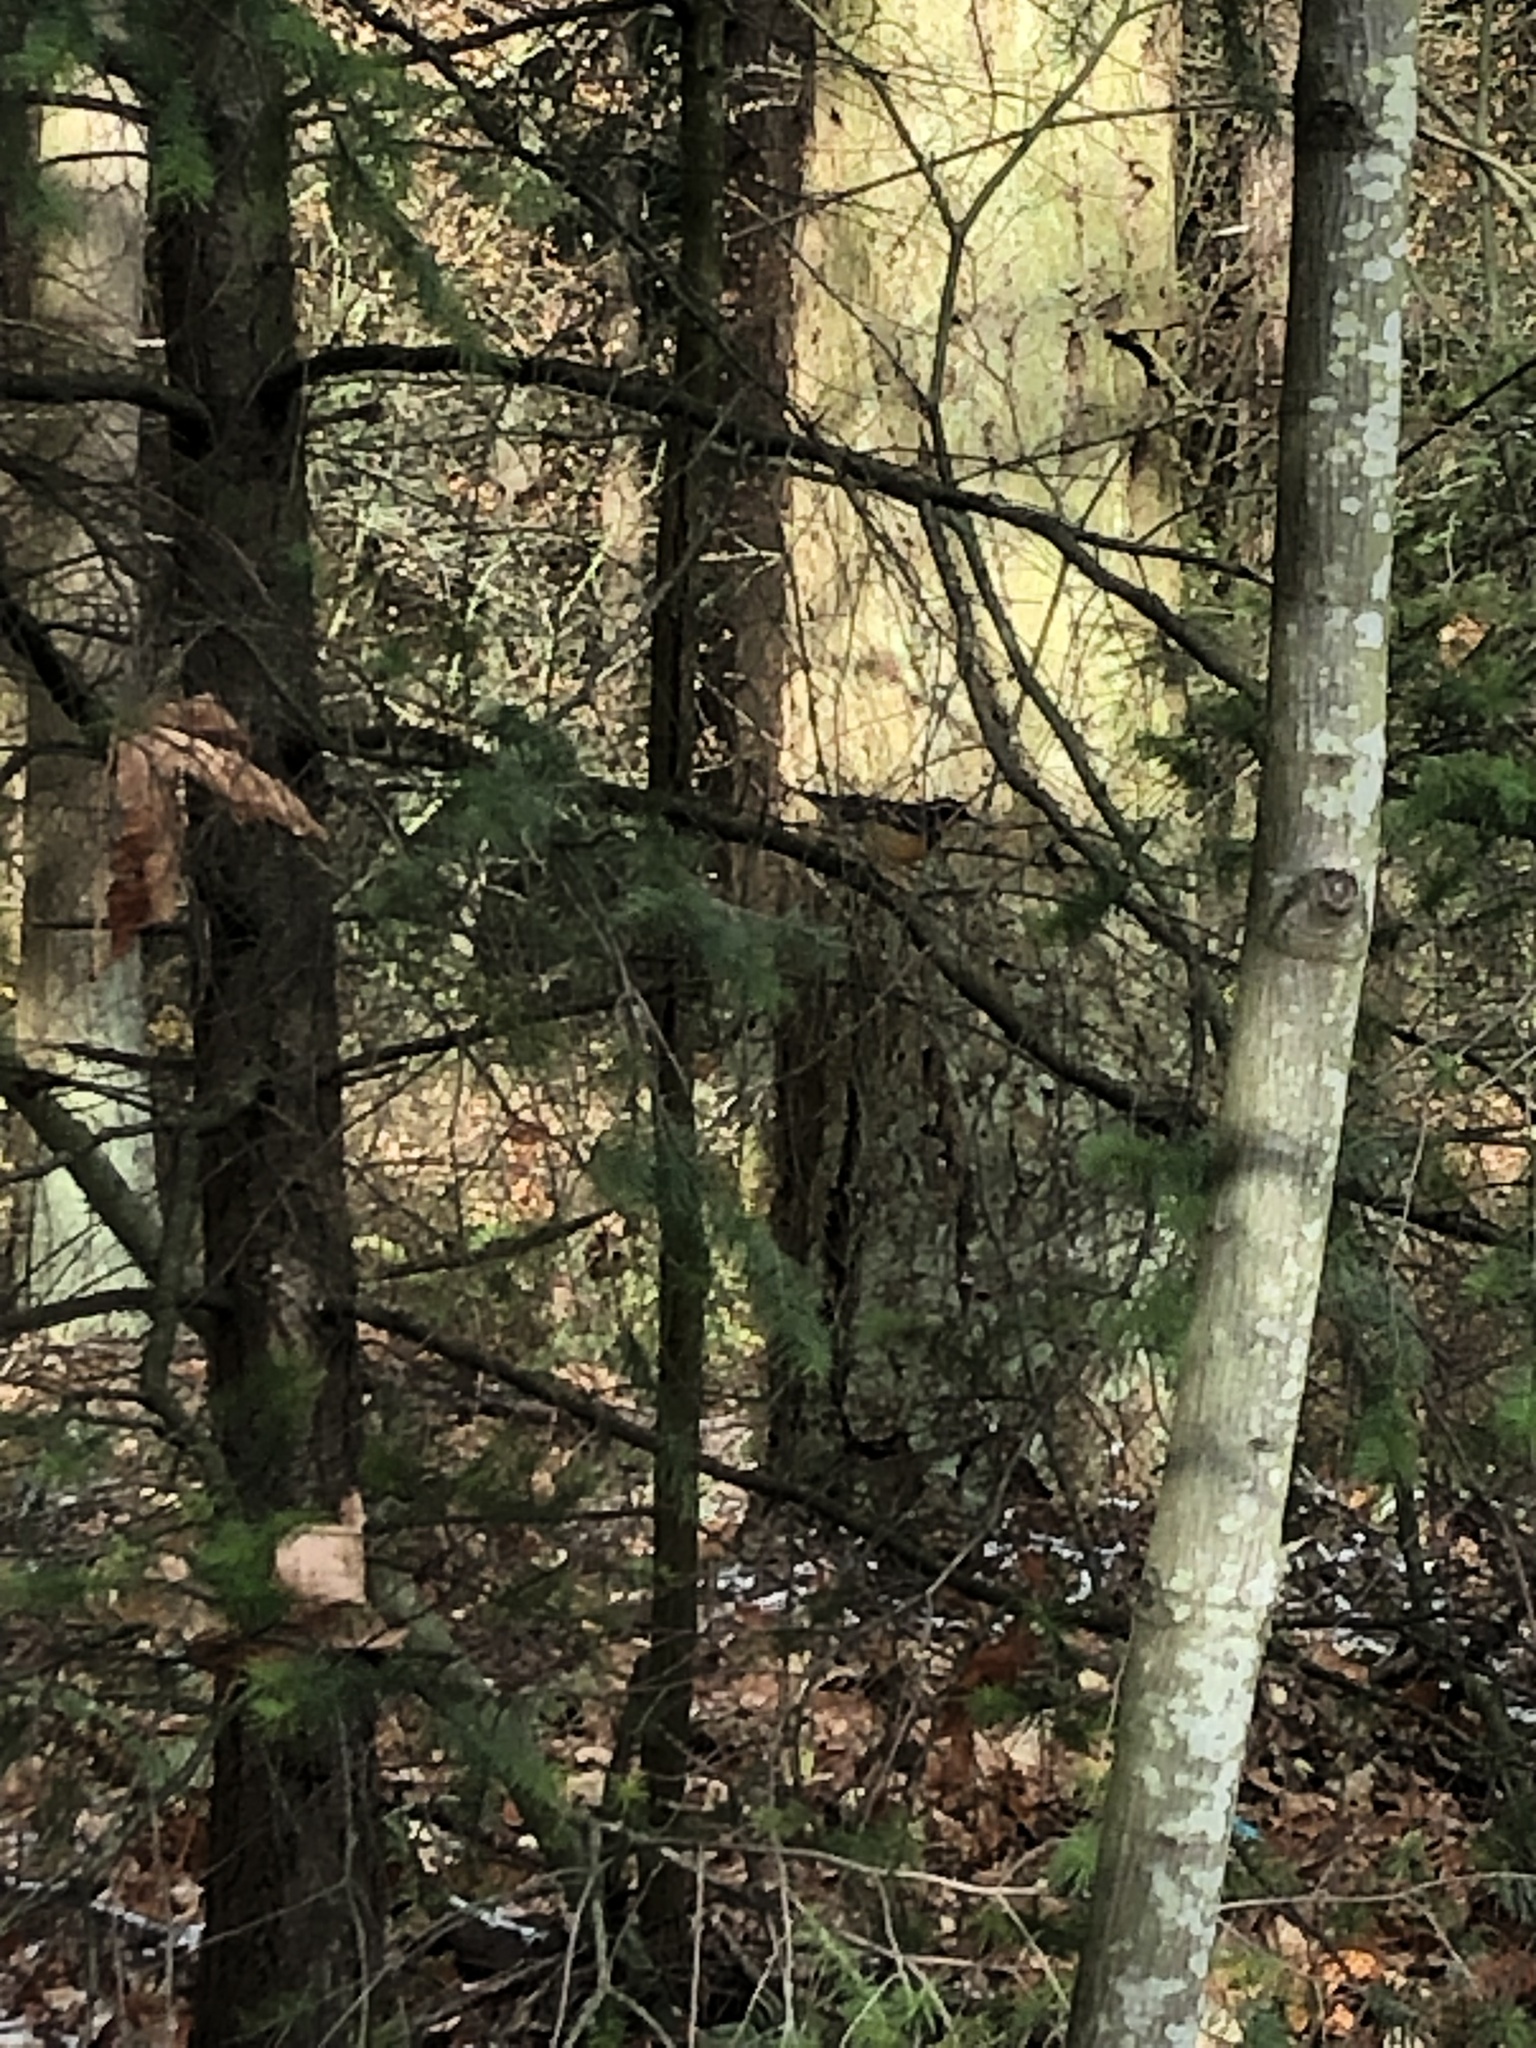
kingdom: Animalia
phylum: Chordata
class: Aves
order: Passeriformes
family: Turdidae
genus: Ixoreus
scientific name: Ixoreus naevius
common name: Varied thrush
